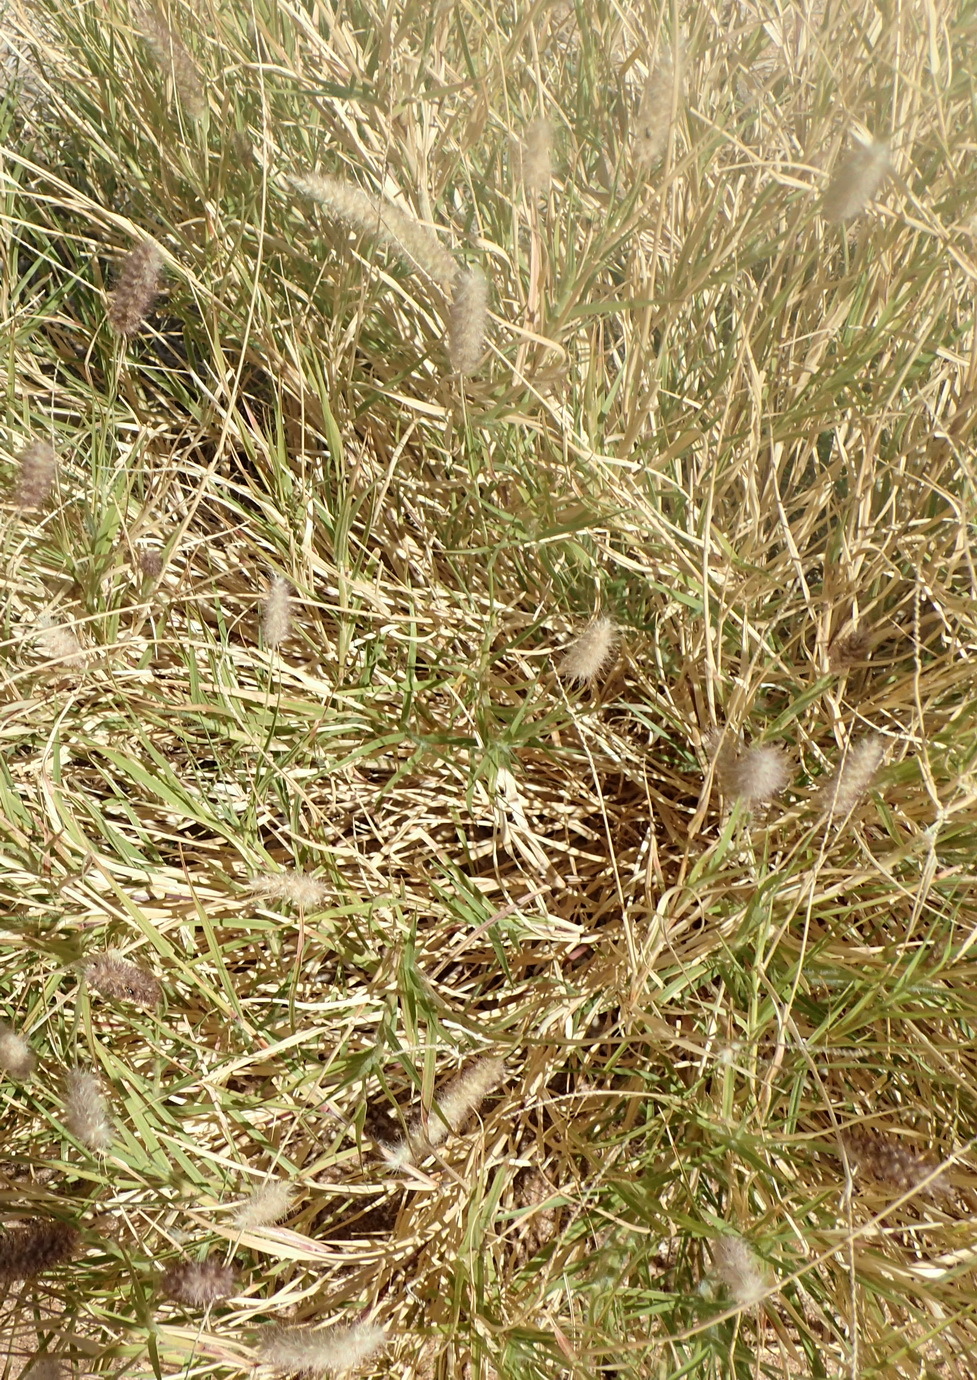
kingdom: Plantae
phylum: Tracheophyta
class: Liliopsida
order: Poales
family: Poaceae
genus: Cenchrus
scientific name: Cenchrus ciliaris
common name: Buffelgrass
